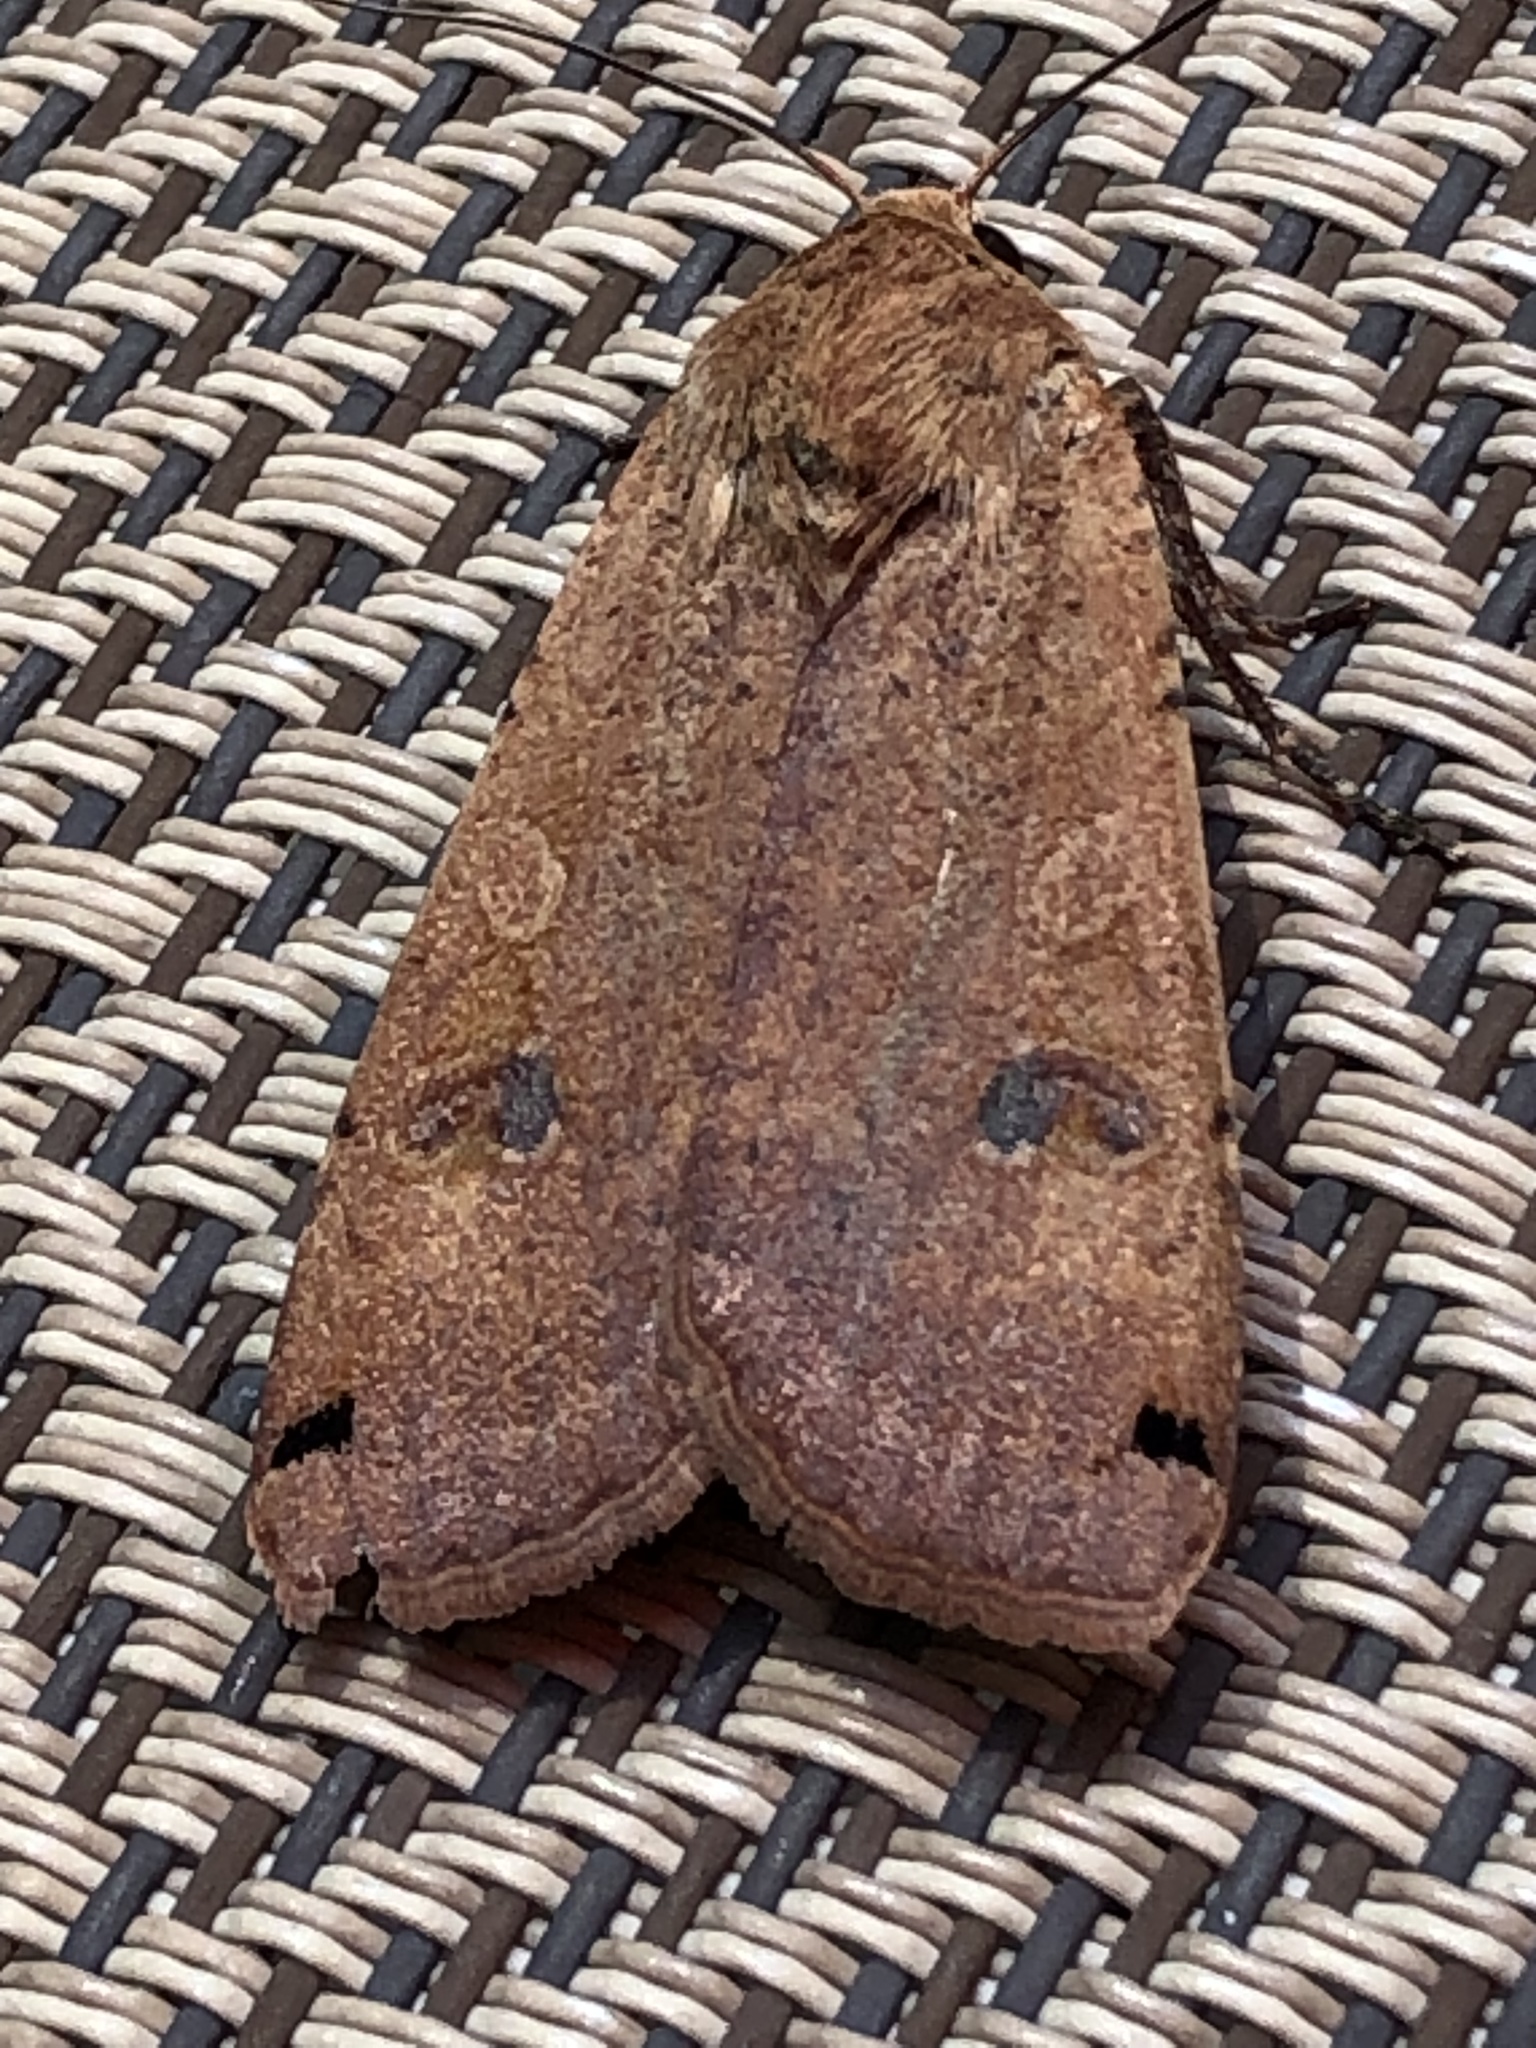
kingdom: Animalia
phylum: Arthropoda
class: Insecta
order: Lepidoptera
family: Noctuidae
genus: Noctua
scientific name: Noctua pronuba
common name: Large yellow underwing
